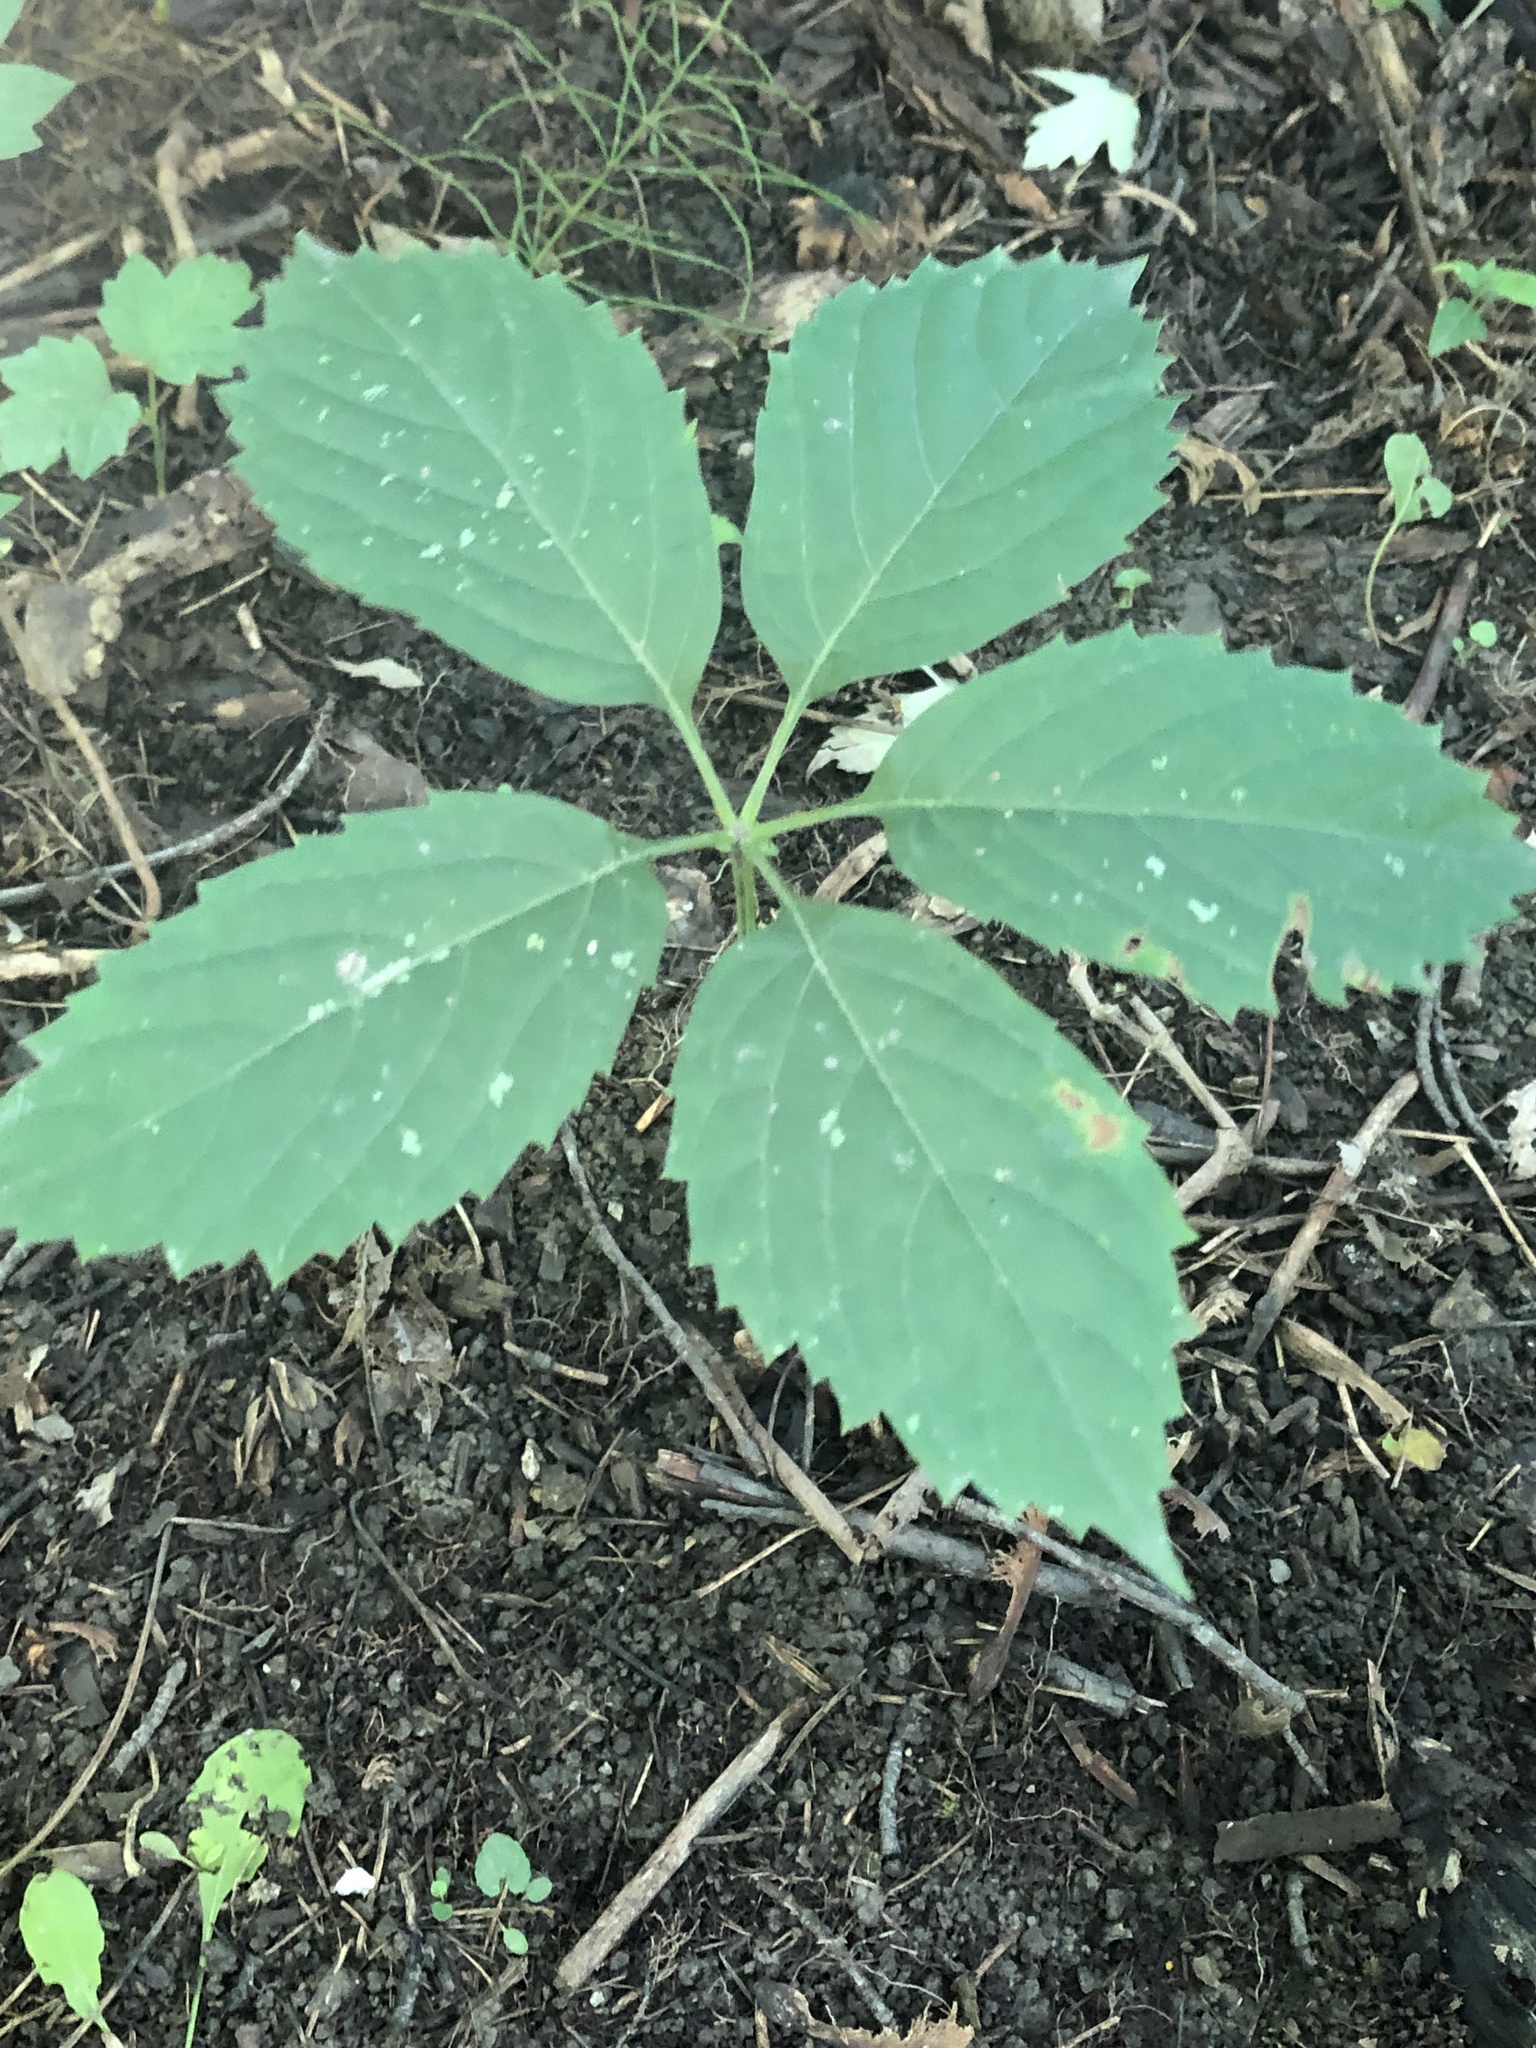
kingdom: Plantae
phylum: Tracheophyta
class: Magnoliopsida
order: Vitales
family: Vitaceae
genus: Parthenocissus
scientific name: Parthenocissus inserta
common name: False virginia-creeper
